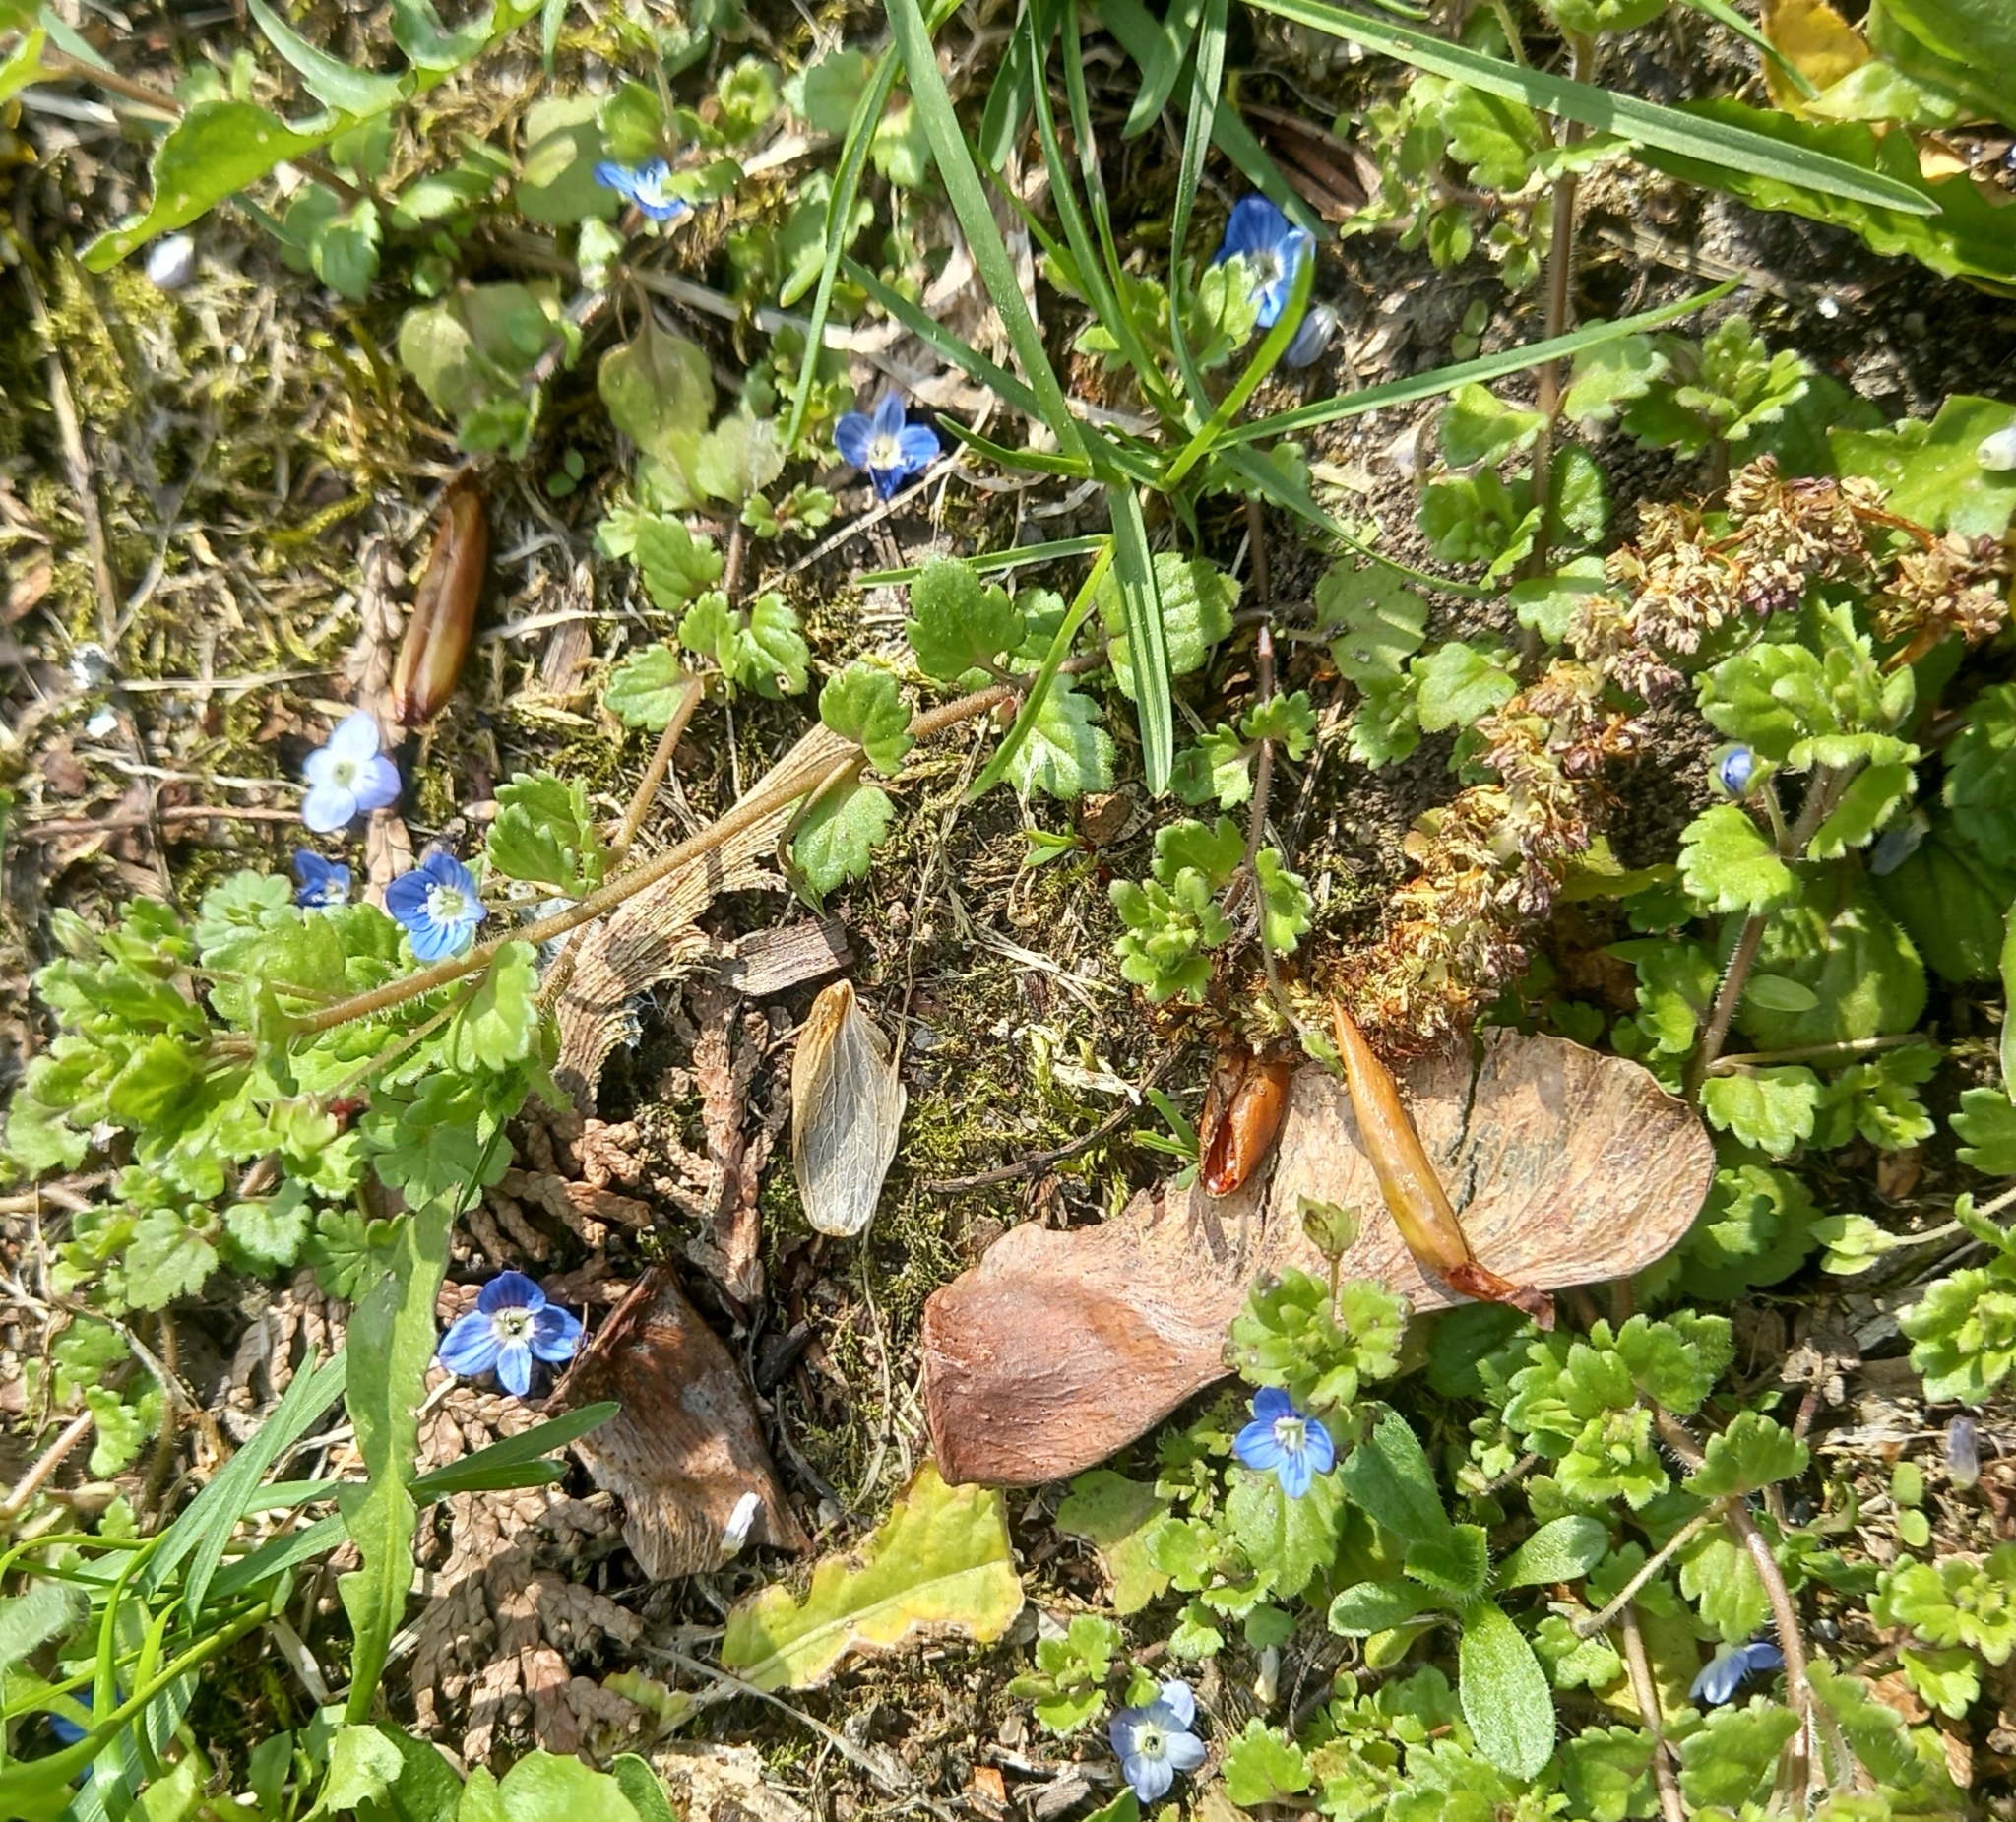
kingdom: Plantae
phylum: Tracheophyta
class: Magnoliopsida
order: Lamiales
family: Plantaginaceae
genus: Veronica
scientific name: Veronica polita
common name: Grey field-speedwell
